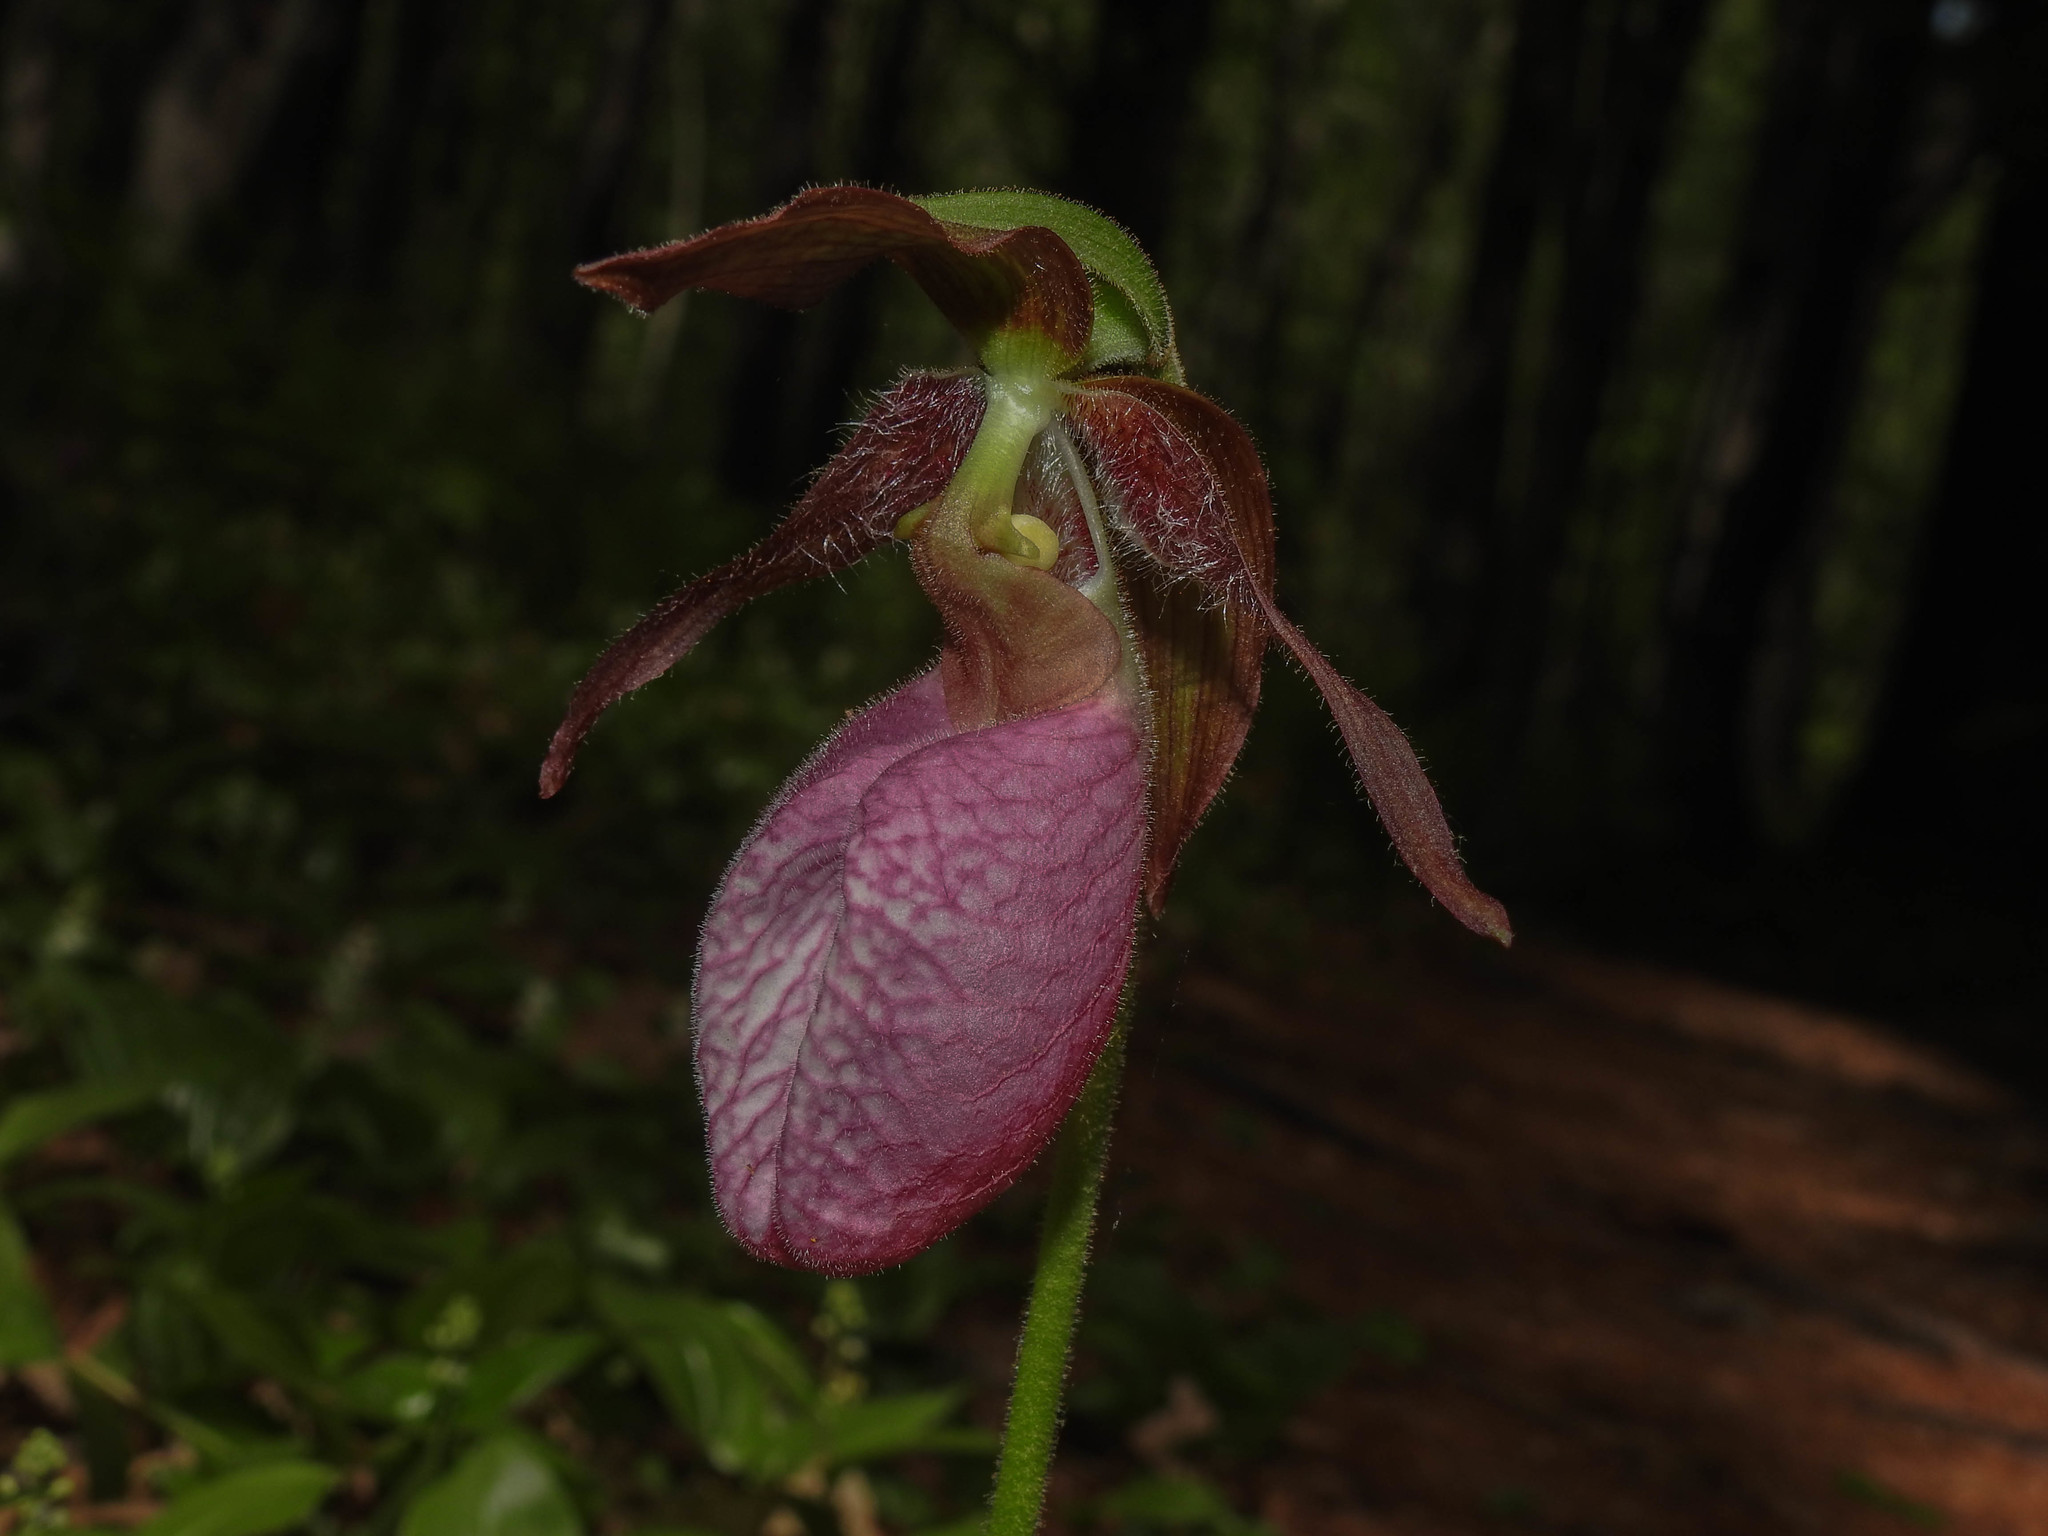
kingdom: Plantae
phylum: Tracheophyta
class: Liliopsida
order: Asparagales
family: Orchidaceae
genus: Cypripedium
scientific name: Cypripedium acaule
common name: Pink lady's-slipper
